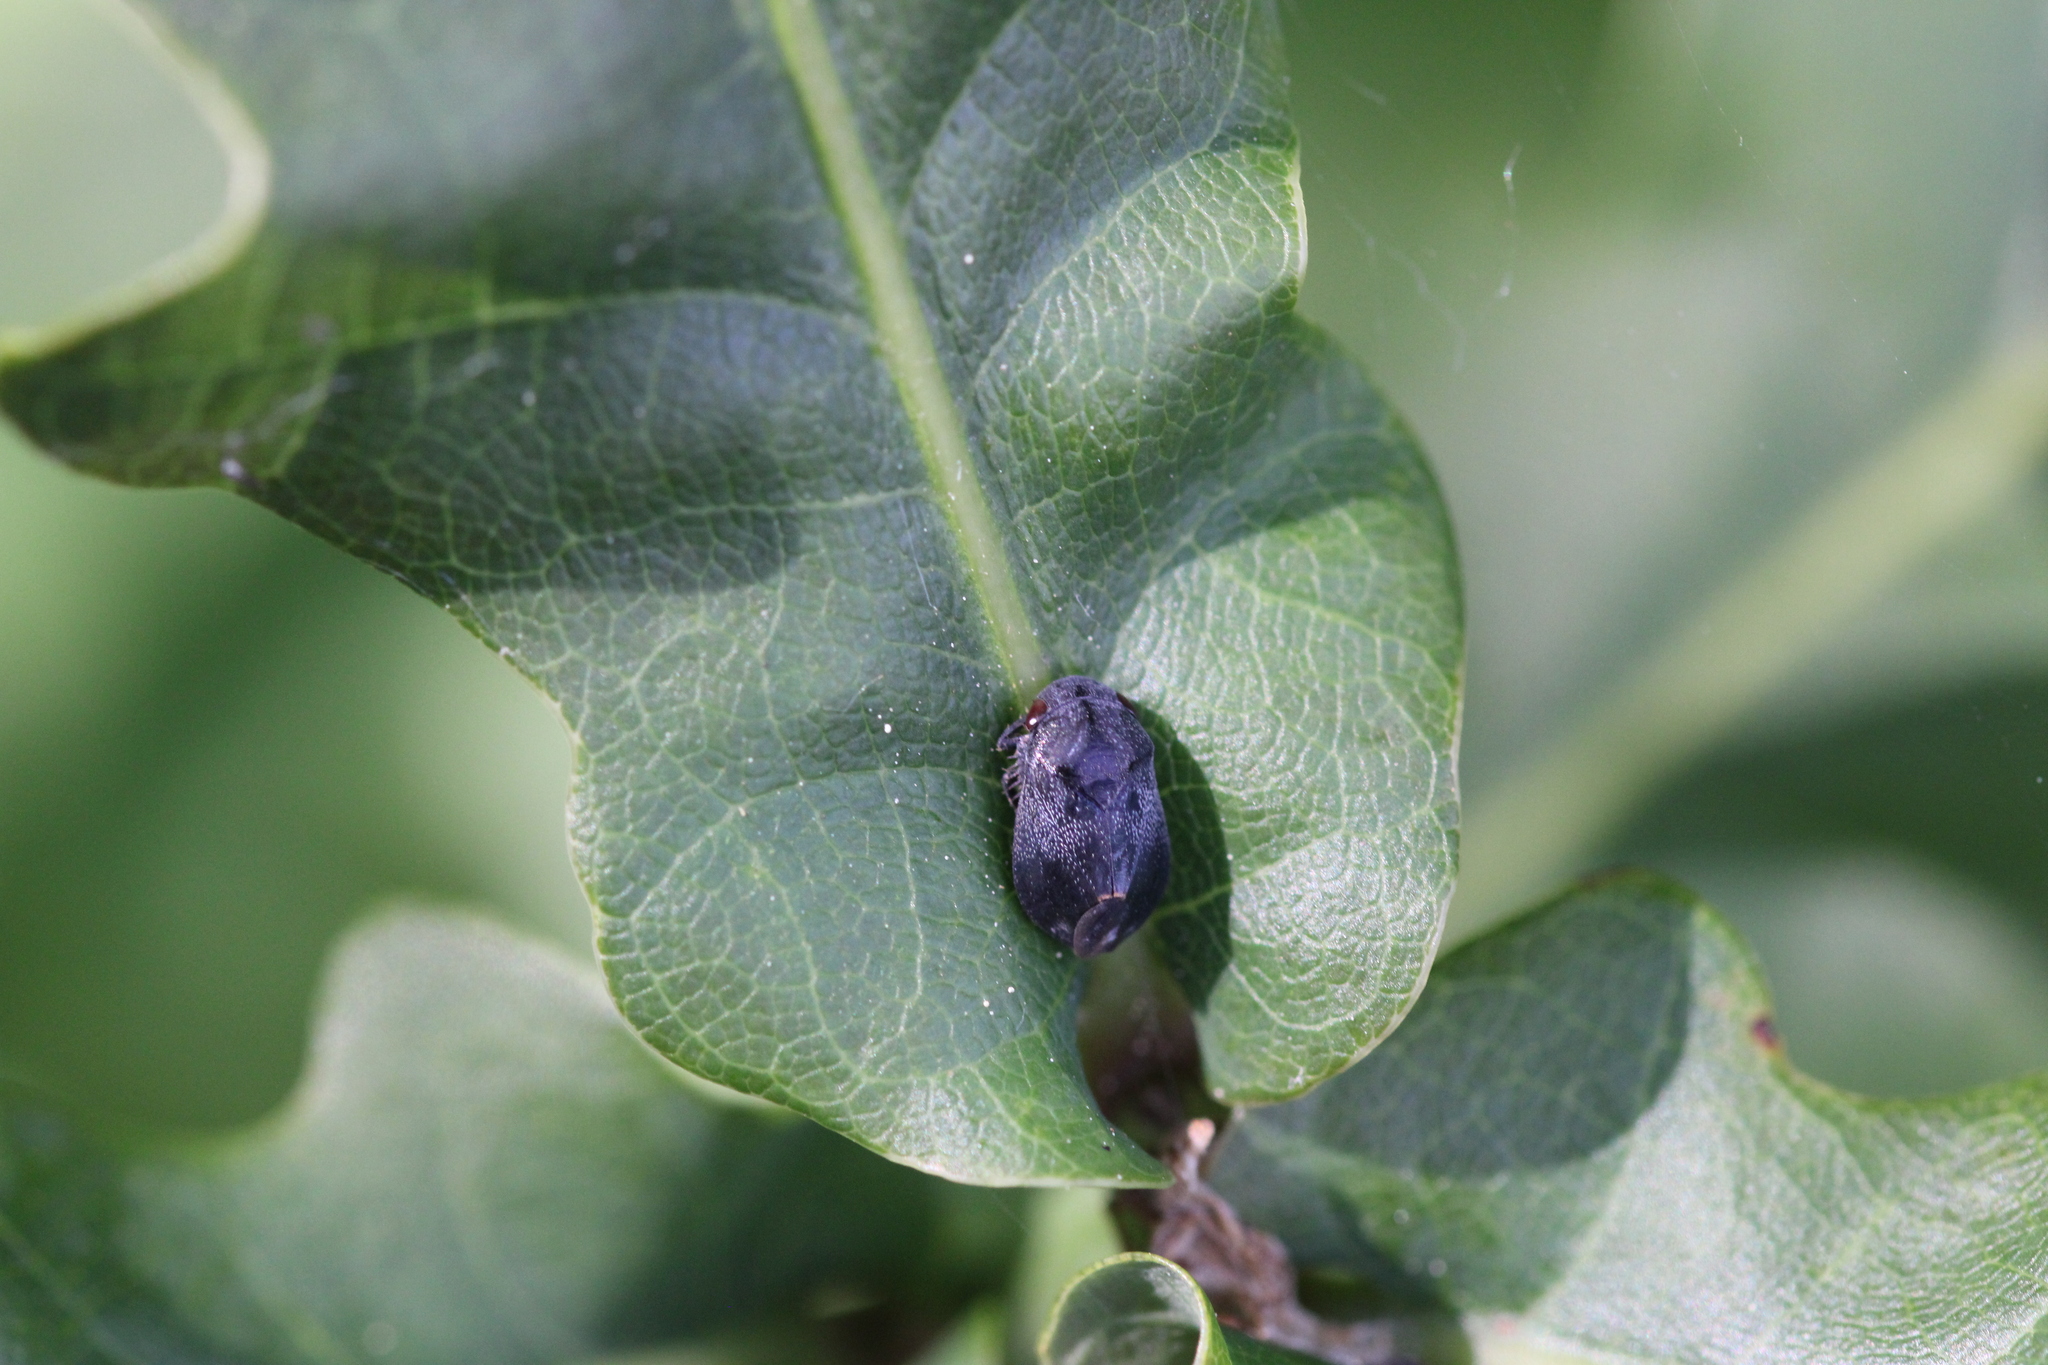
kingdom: Animalia
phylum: Arthropoda
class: Insecta
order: Hemiptera
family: Cicadellidae
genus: Penthimia
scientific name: Penthimia nigra
